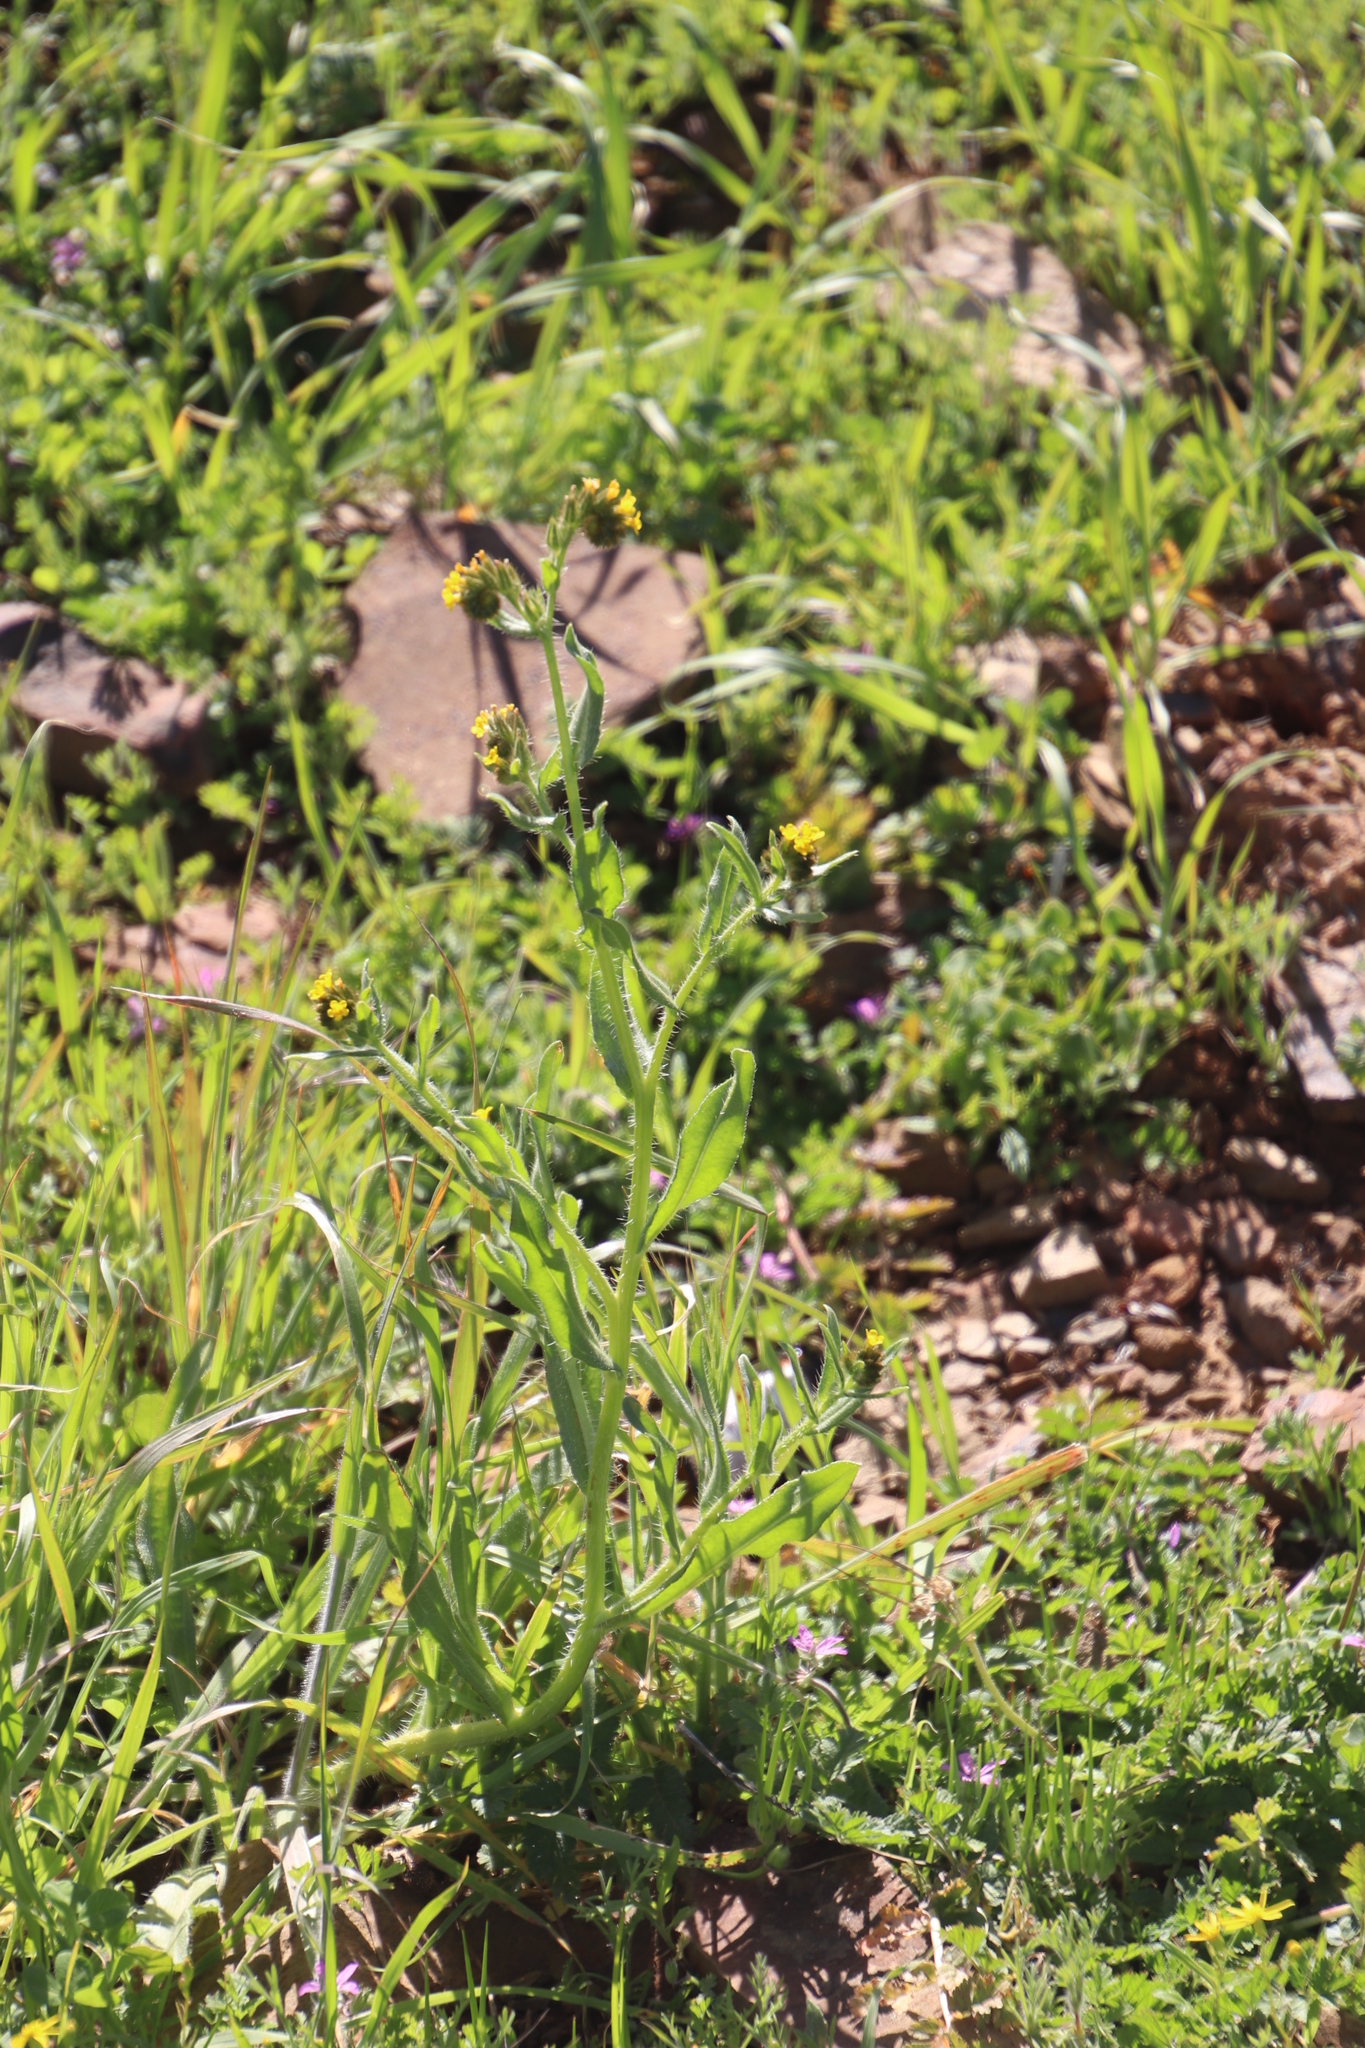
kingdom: Plantae
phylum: Tracheophyta
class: Magnoliopsida
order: Boraginales
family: Boraginaceae
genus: Amsinckia
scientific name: Amsinckia menziesii
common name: Menzies' fiddleneck
